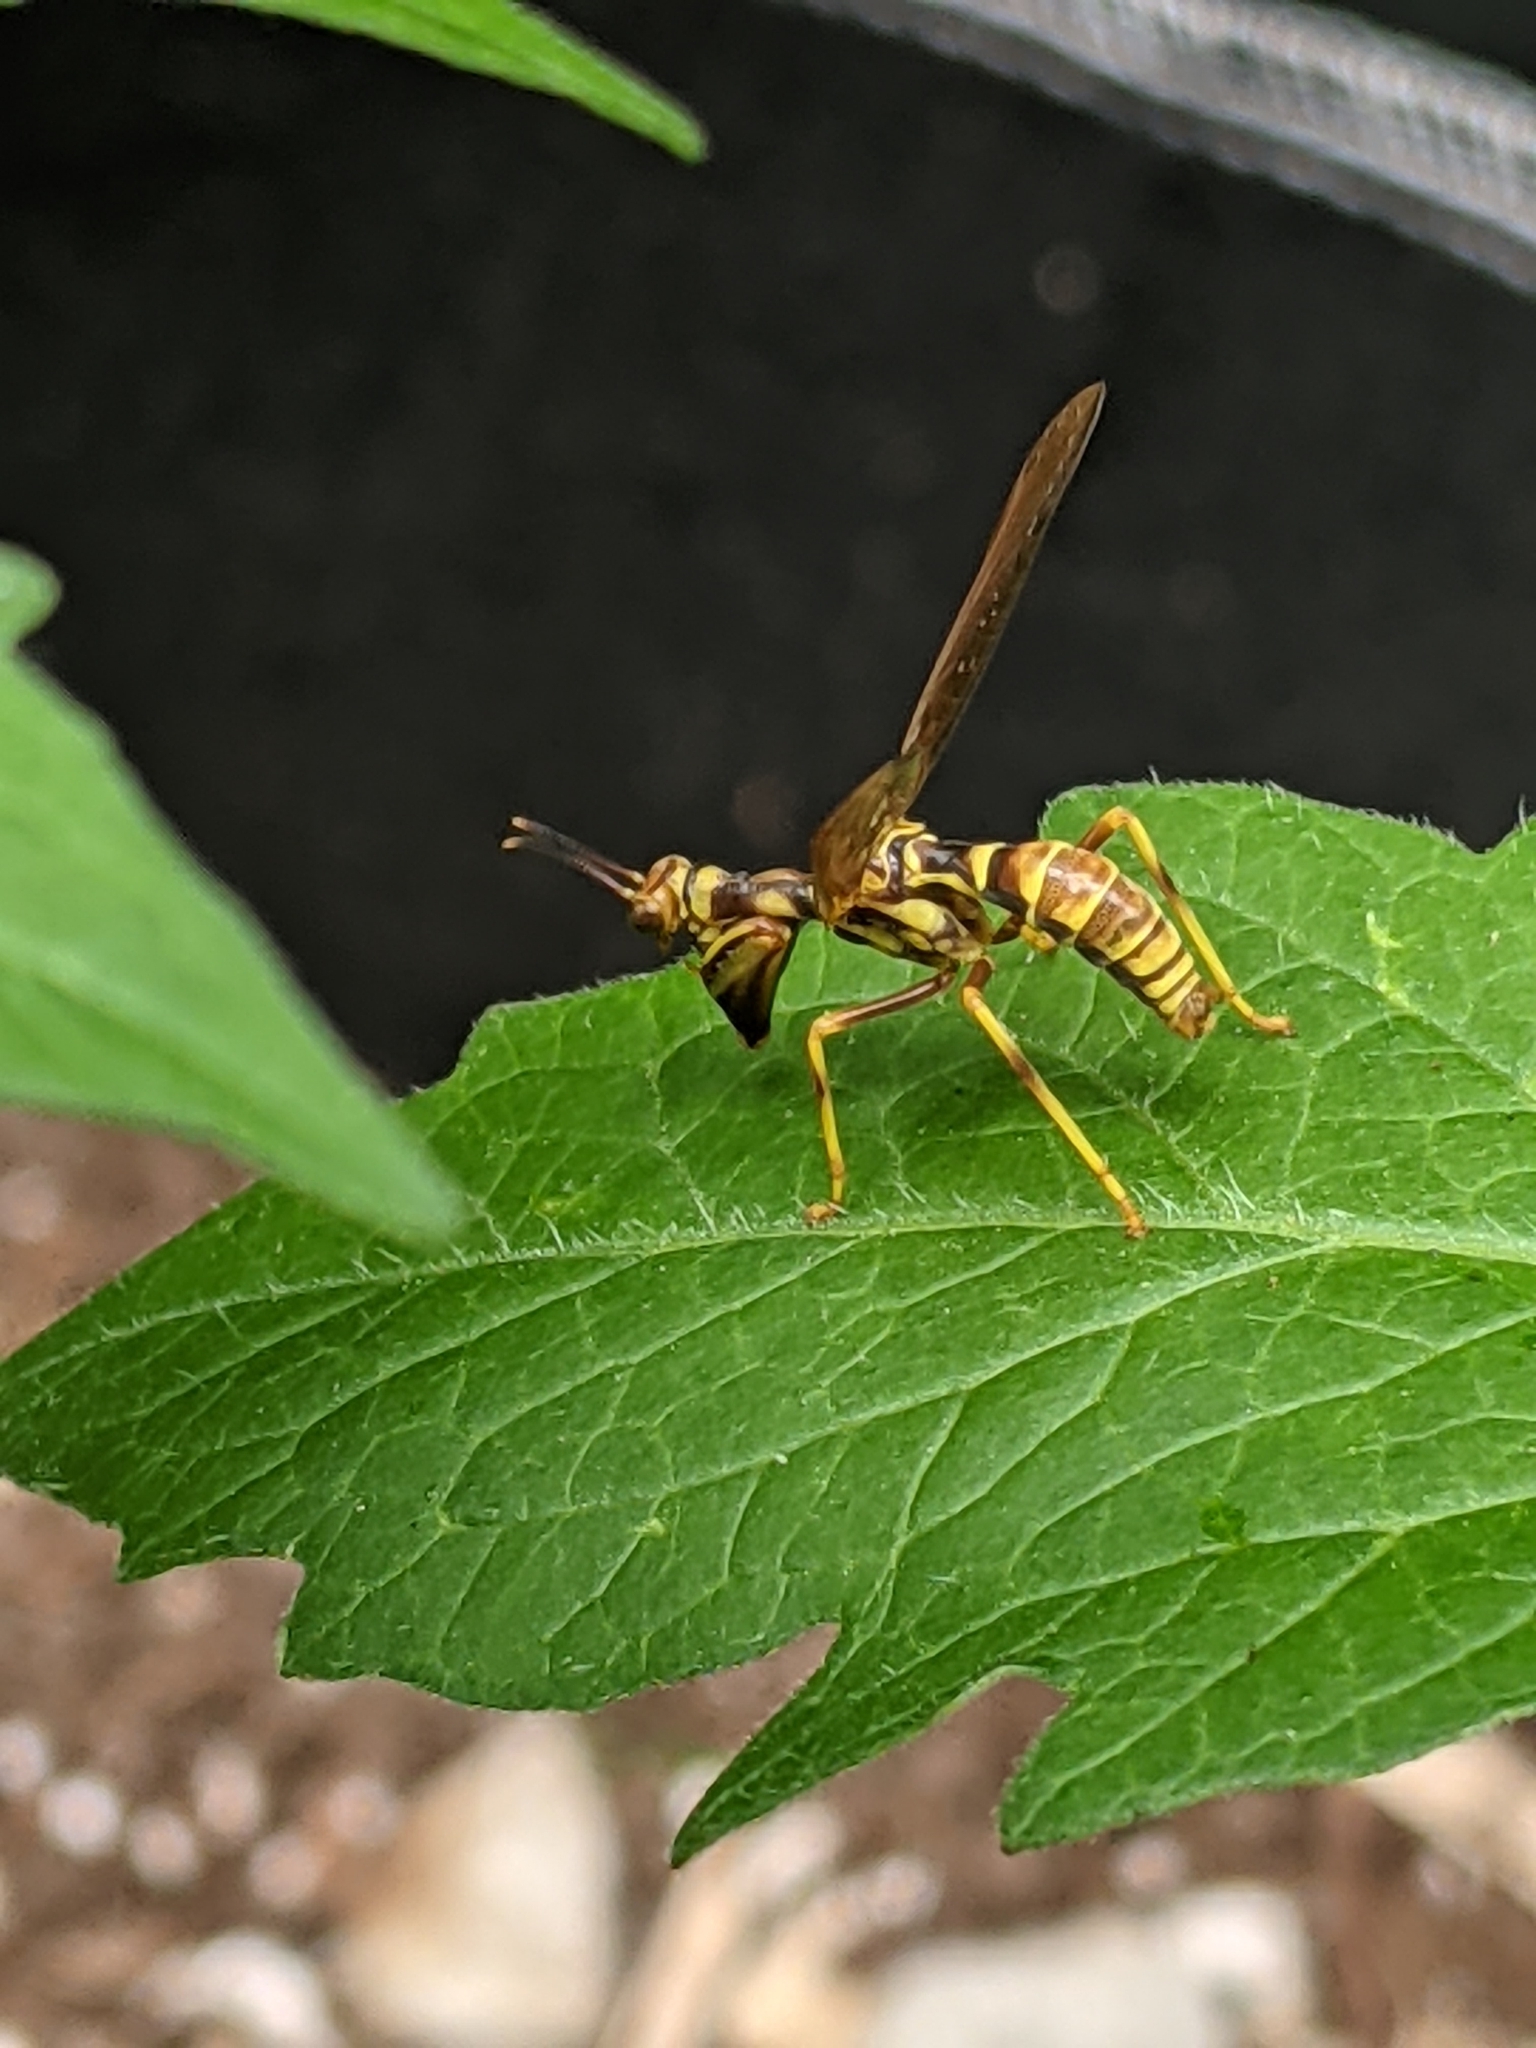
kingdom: Animalia
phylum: Arthropoda
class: Insecta
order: Neuroptera
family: Mantispidae
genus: Climaciella
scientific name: Climaciella brunnea
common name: Brown wasp mantidfly
